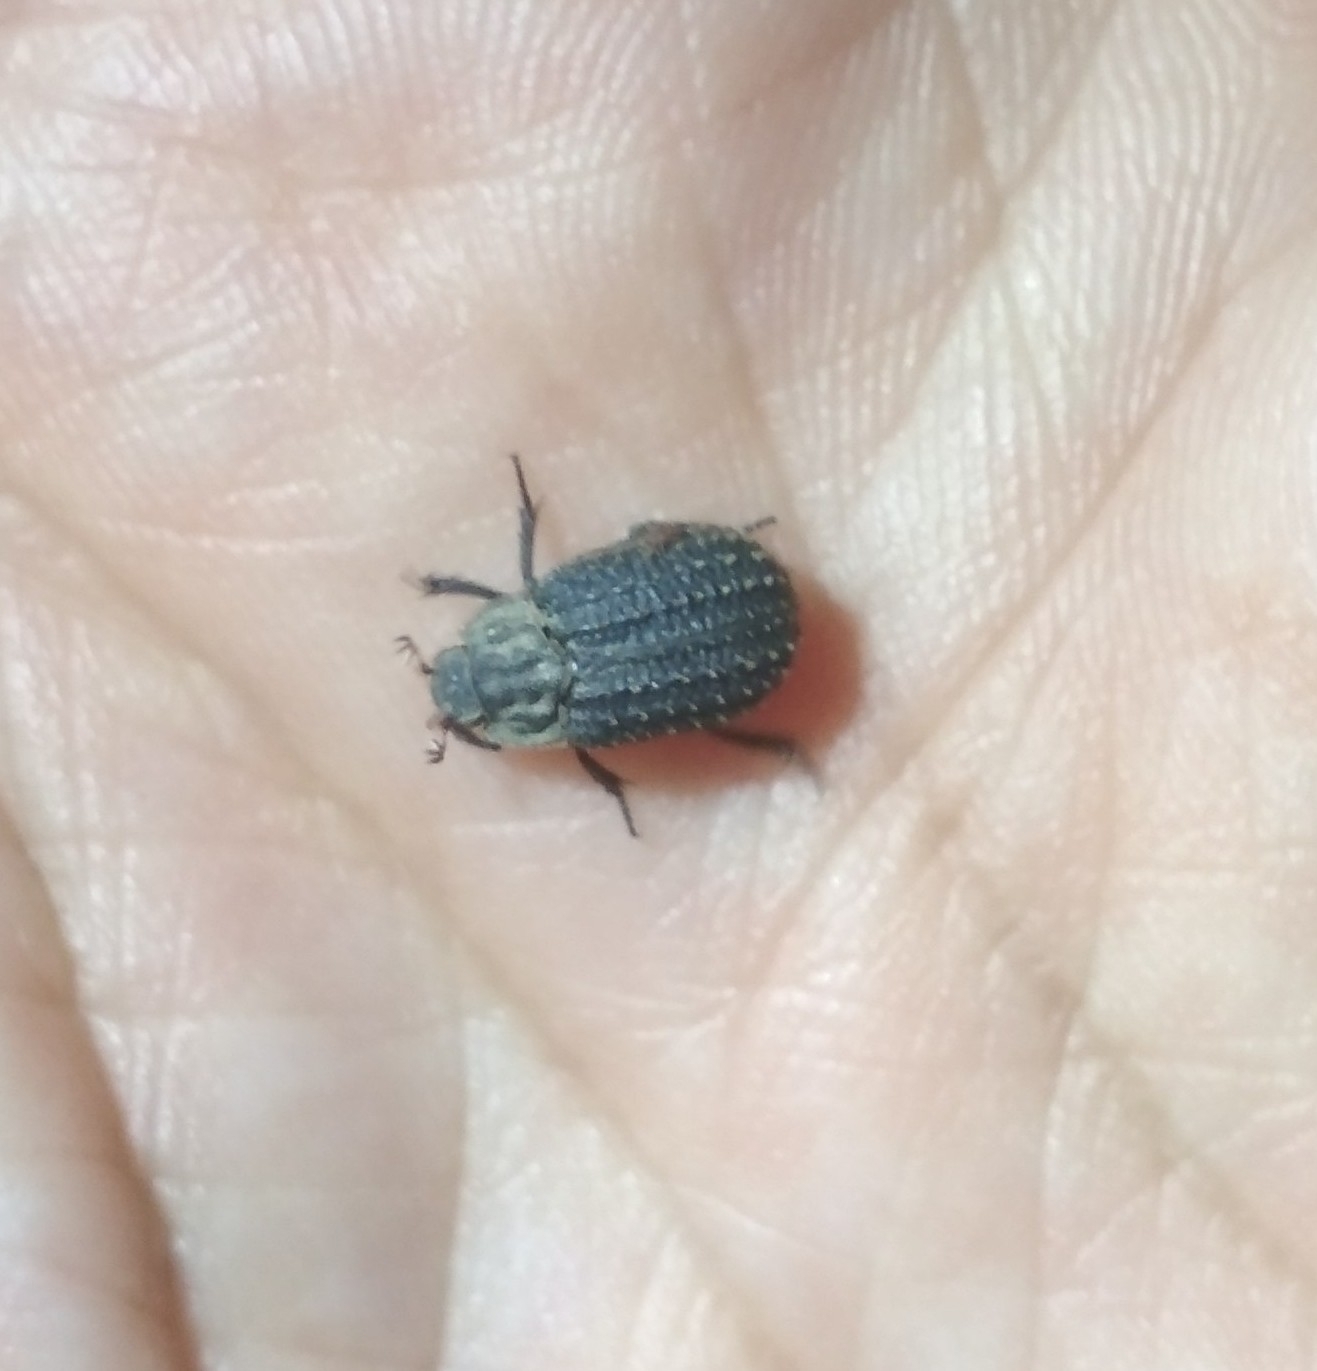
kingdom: Animalia
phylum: Arthropoda
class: Insecta
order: Coleoptera
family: Trogidae
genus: Trox
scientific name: Trox niger
